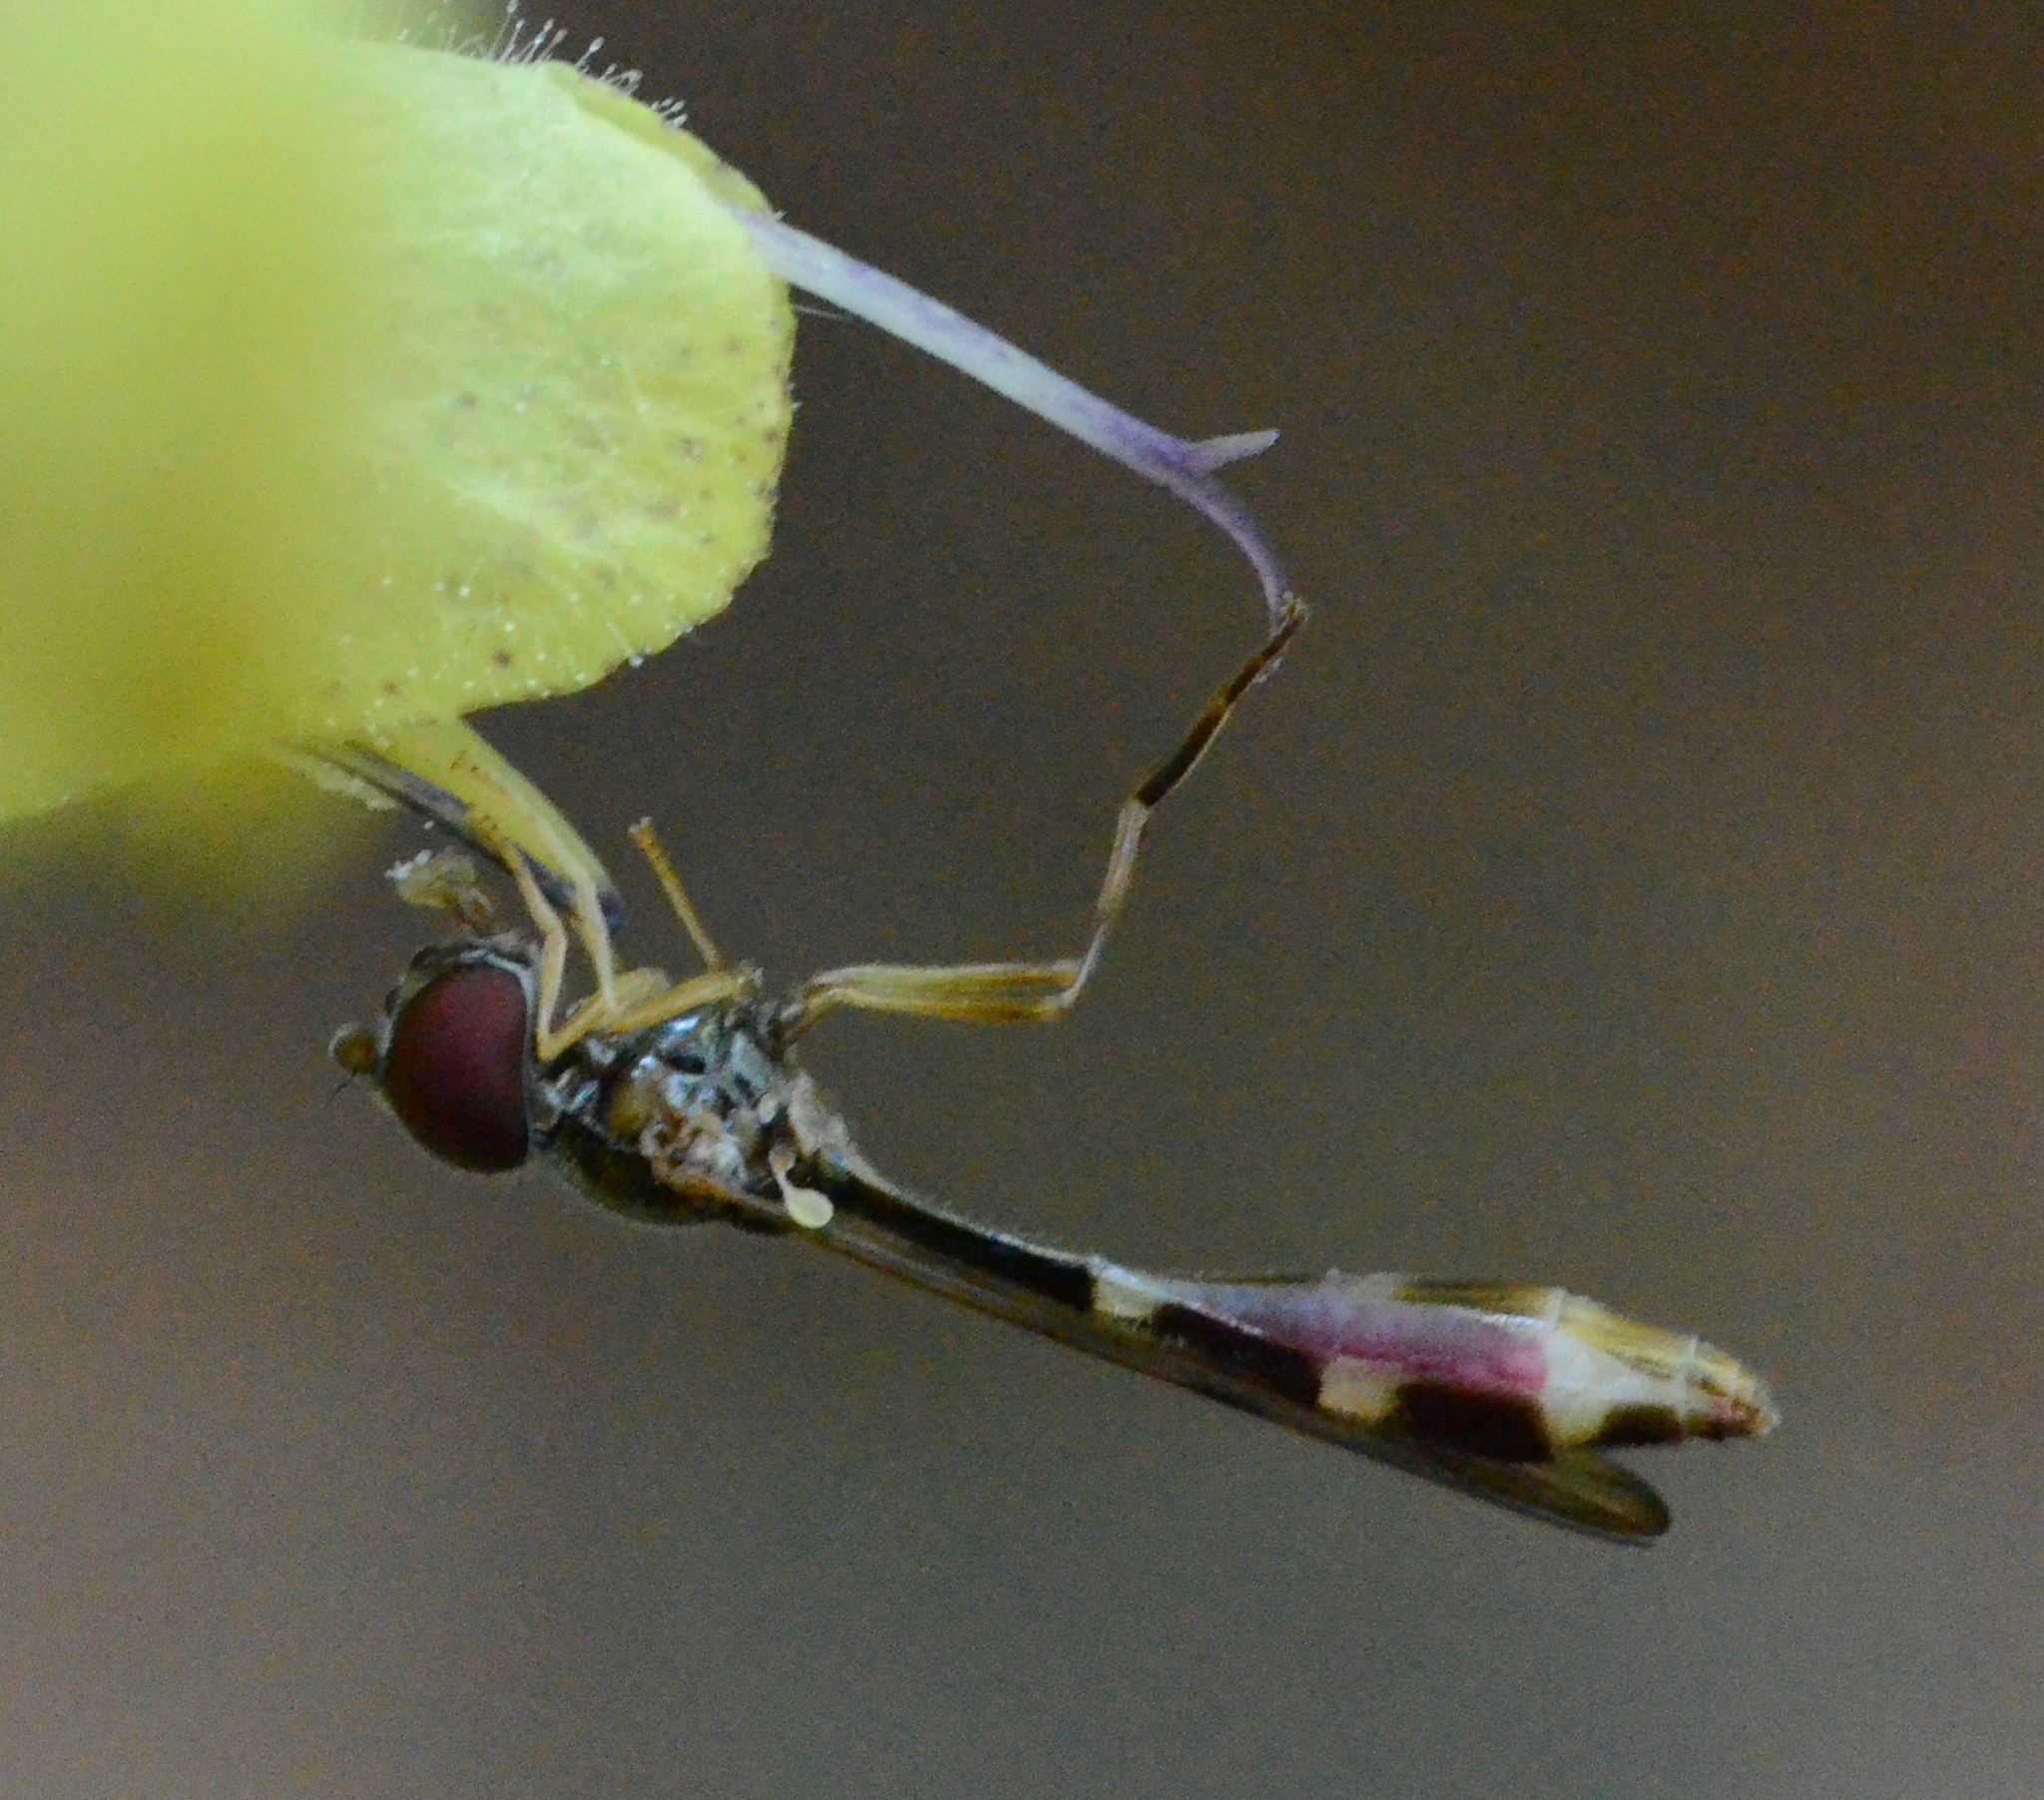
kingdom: Animalia
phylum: Arthropoda
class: Insecta
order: Diptera
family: Syrphidae
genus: Baccha
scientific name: Baccha elongata
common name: Common dainty
